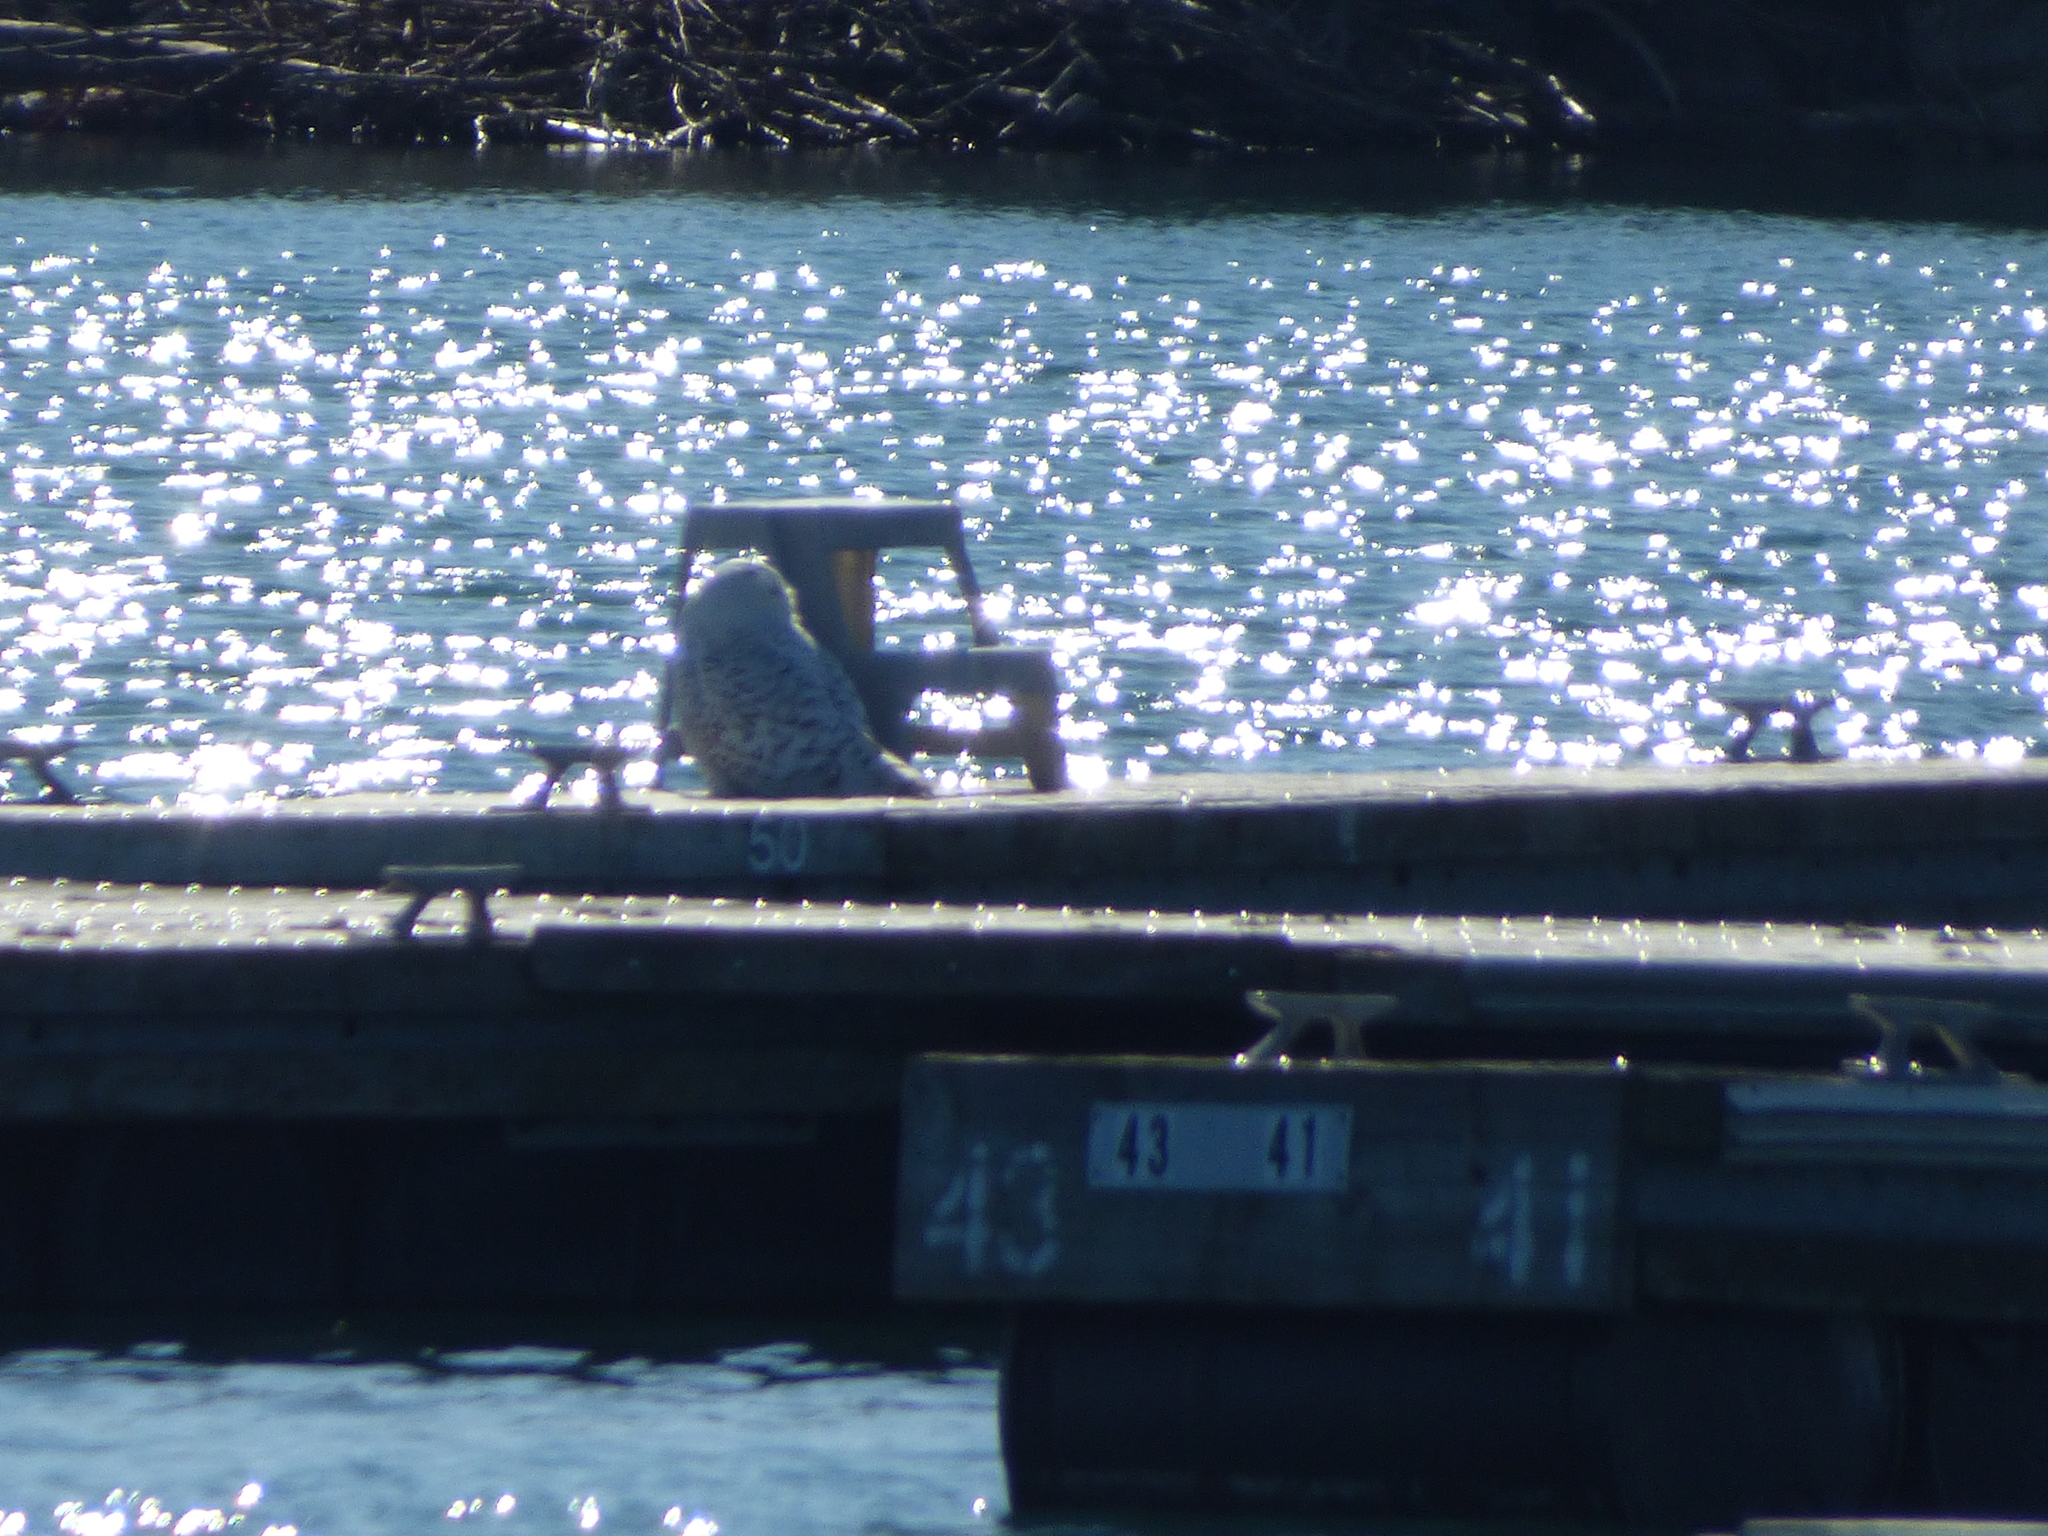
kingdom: Animalia
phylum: Chordata
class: Aves
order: Strigiformes
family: Strigidae
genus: Bubo
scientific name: Bubo scandiacus
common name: Snowy owl
